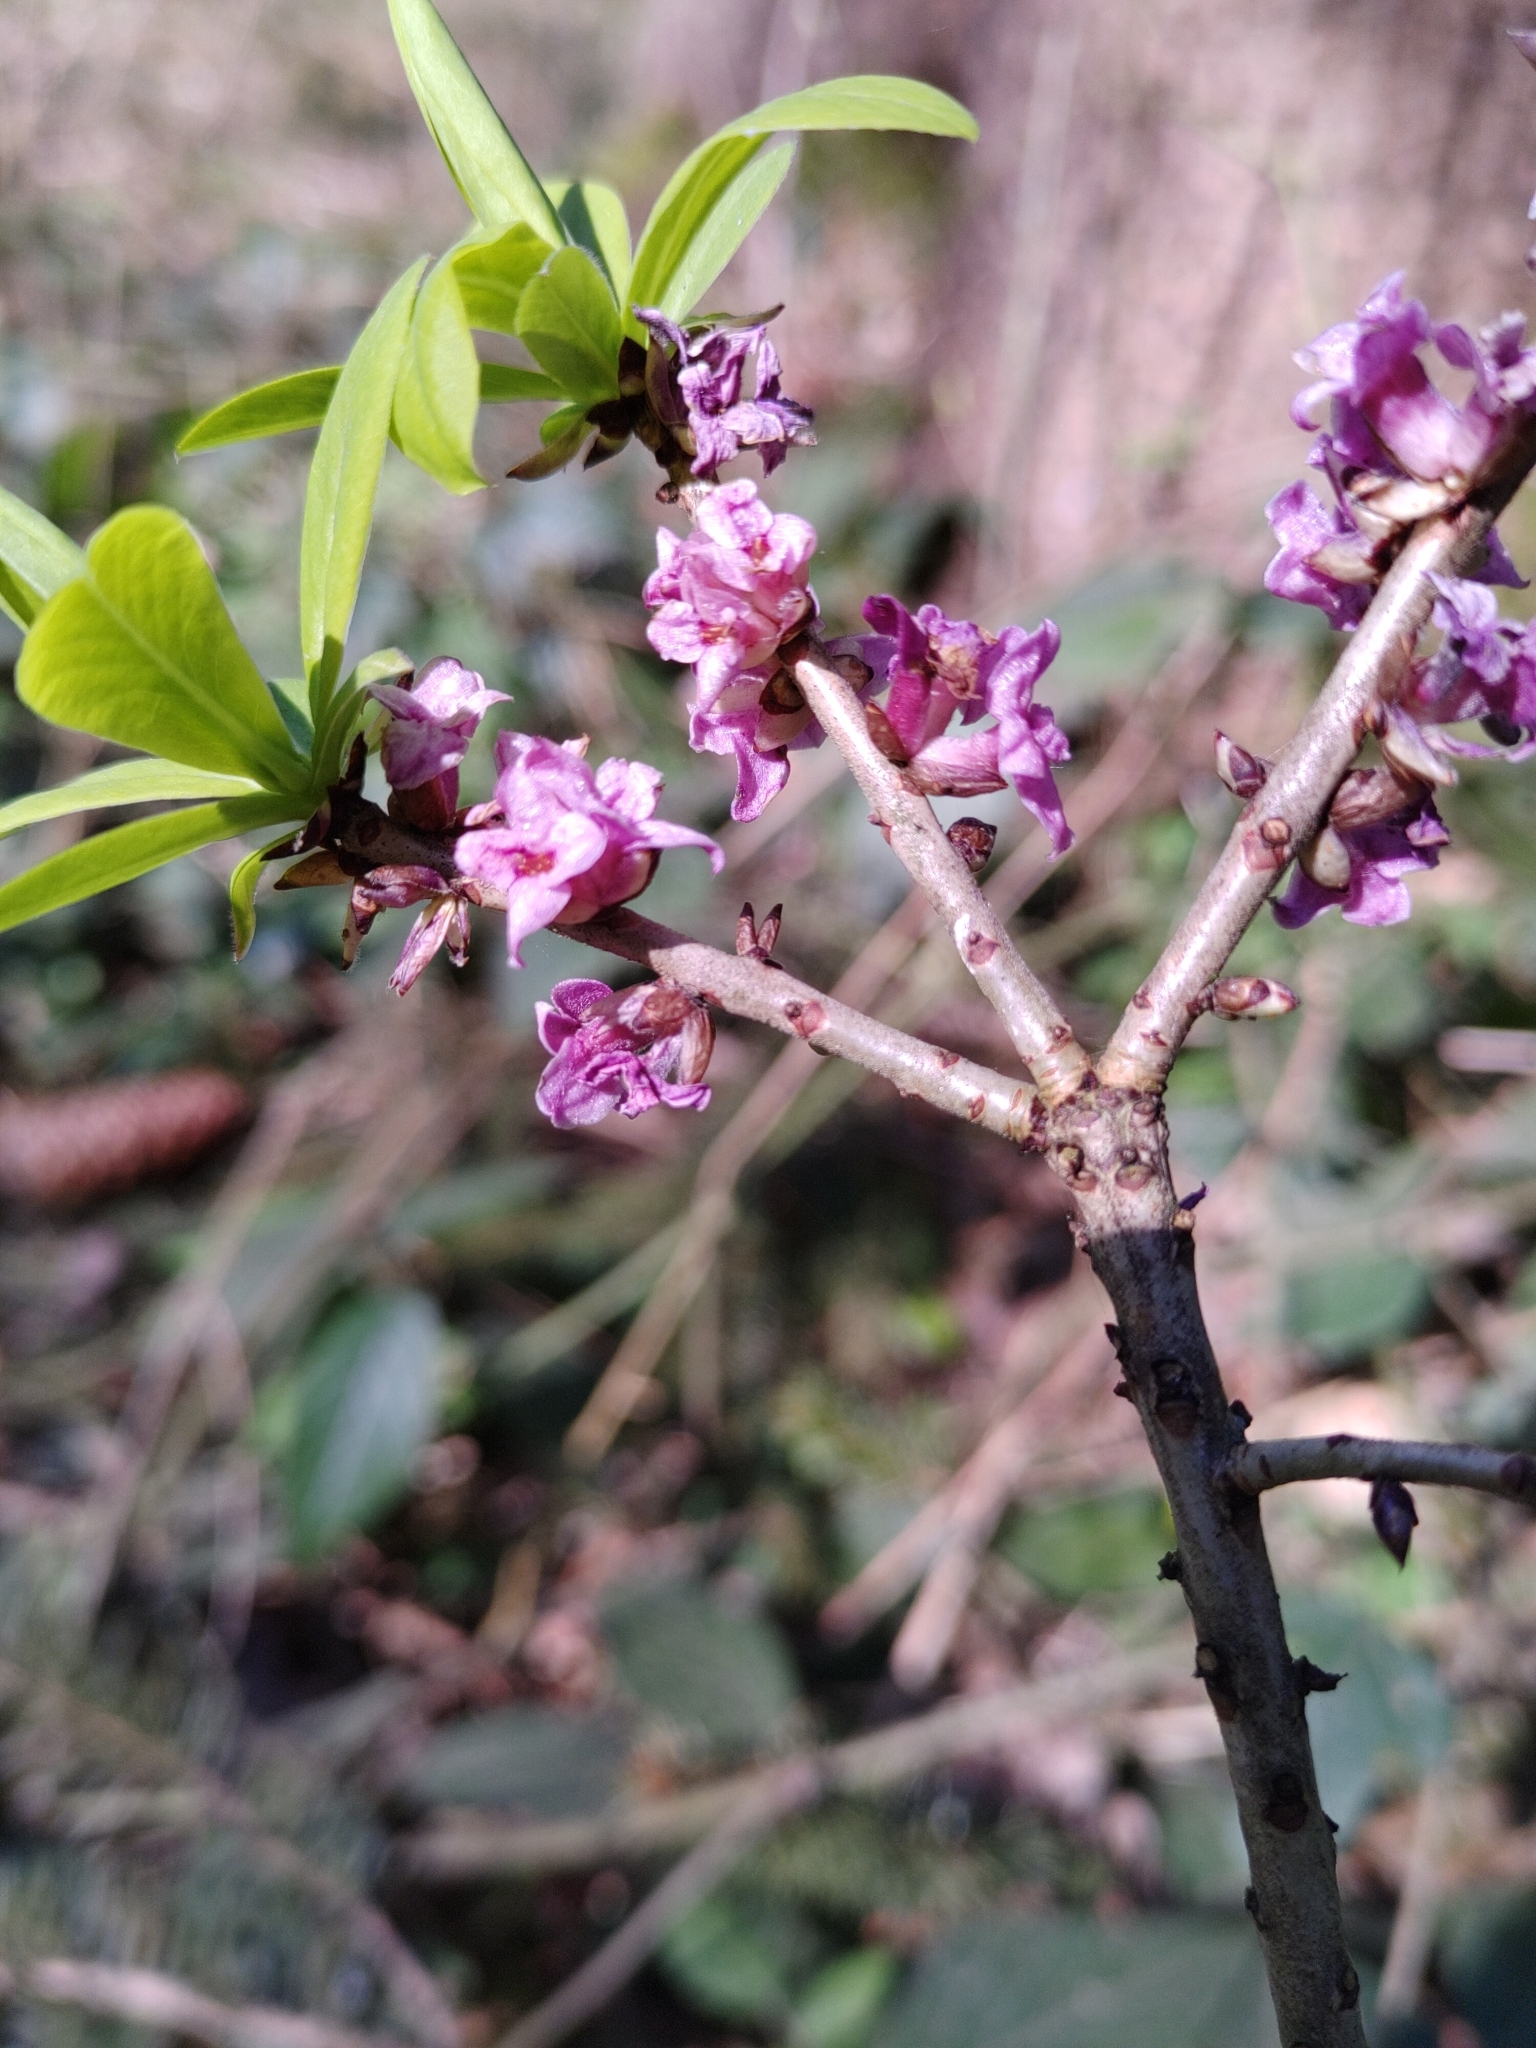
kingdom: Plantae
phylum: Tracheophyta
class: Magnoliopsida
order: Malvales
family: Thymelaeaceae
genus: Daphne
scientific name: Daphne mezereum
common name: Mezereon
